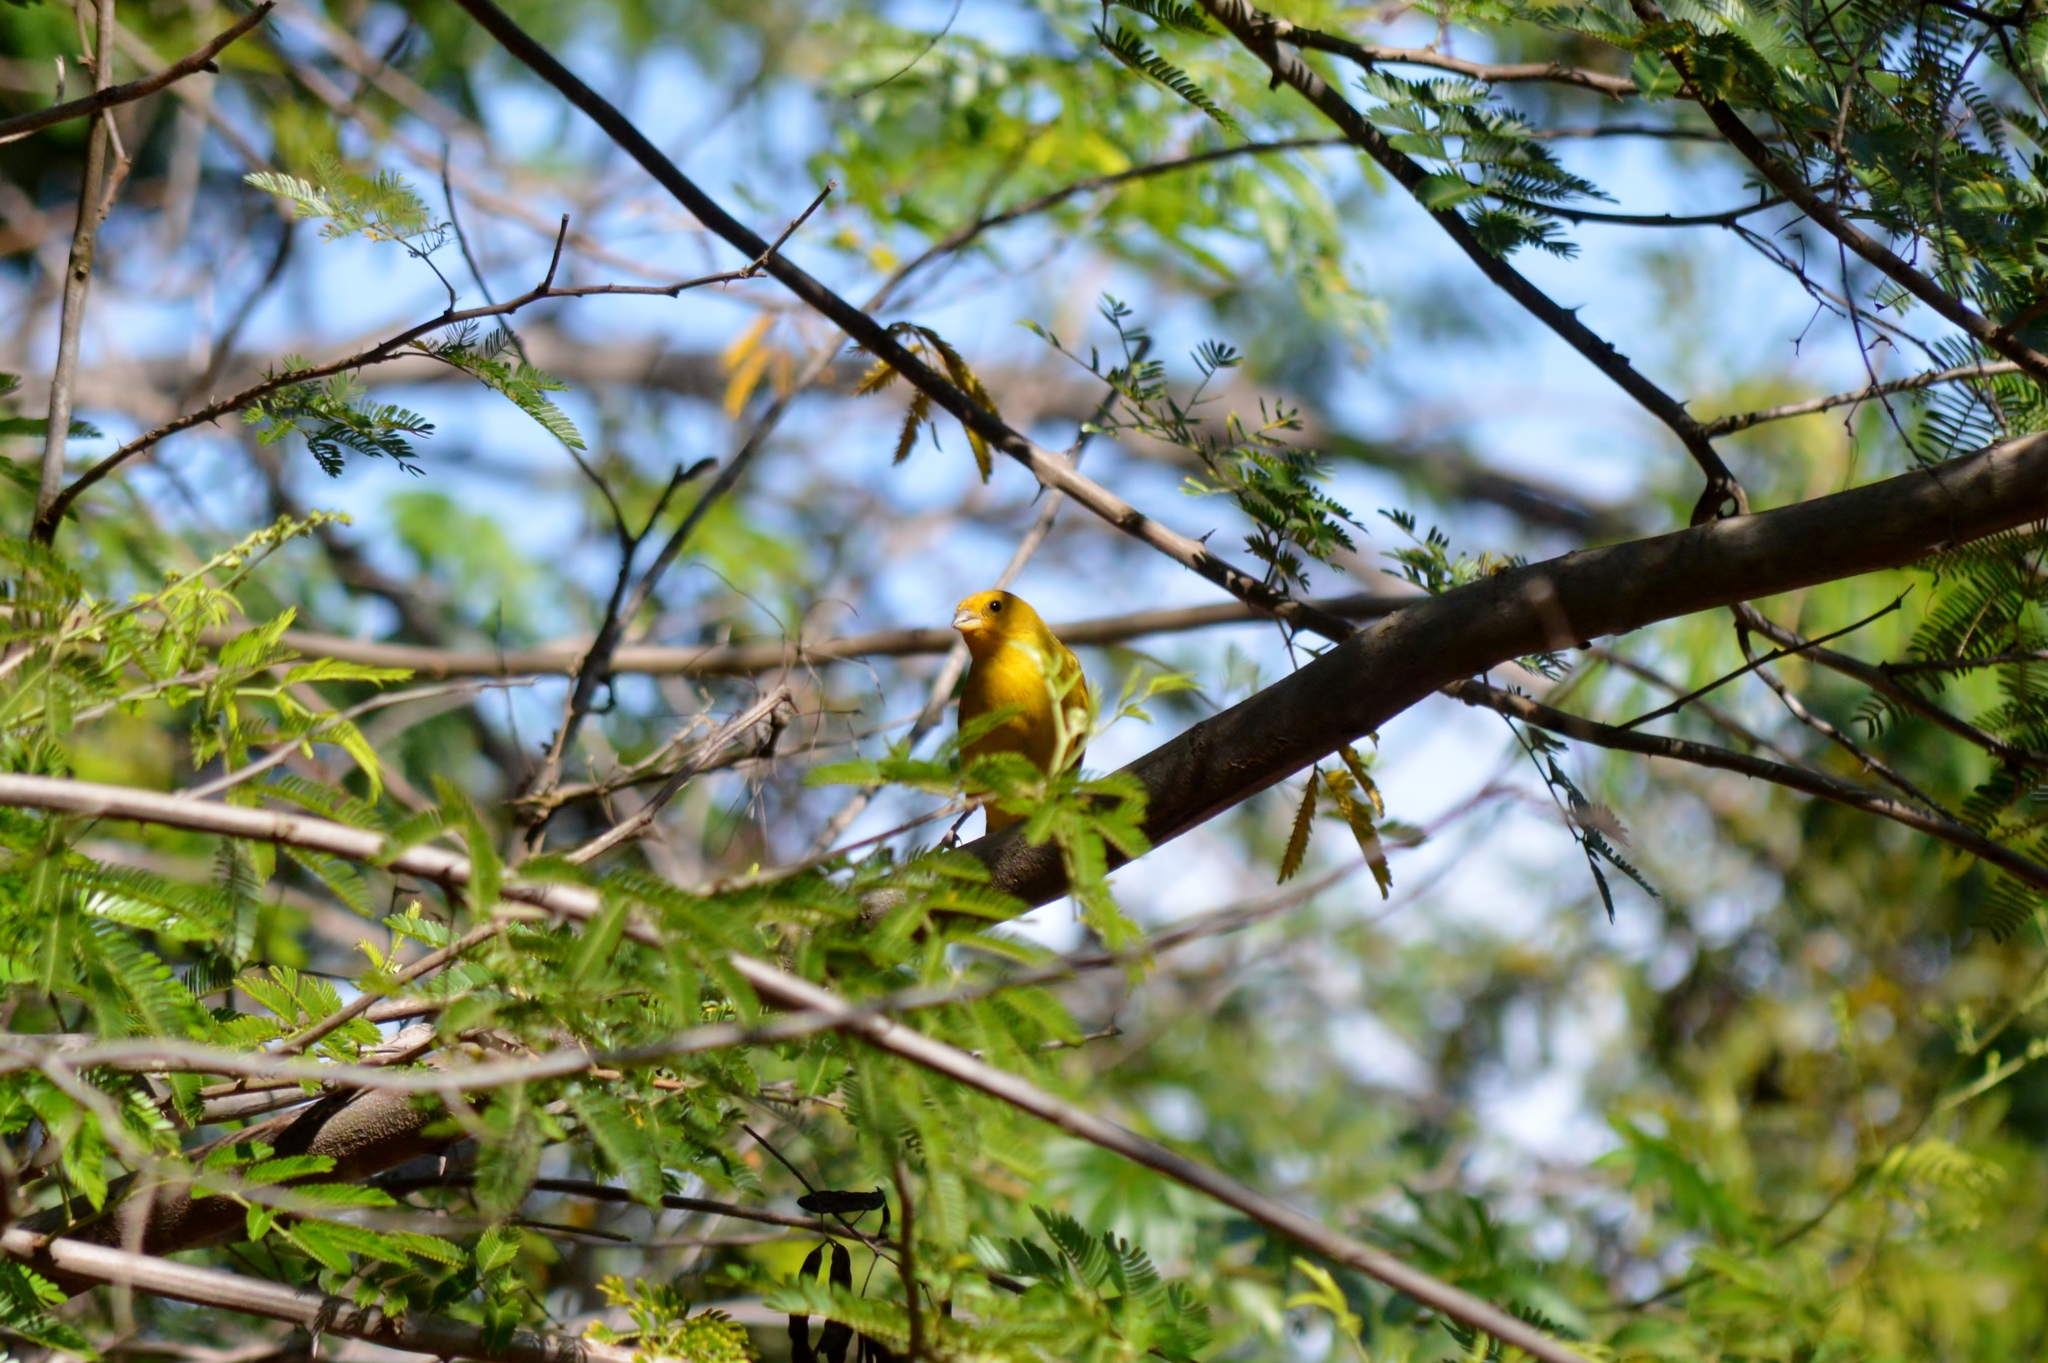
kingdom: Animalia
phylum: Chordata
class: Aves
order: Passeriformes
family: Thraupidae
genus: Sicalis
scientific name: Sicalis flaveola
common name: Saffron finch
